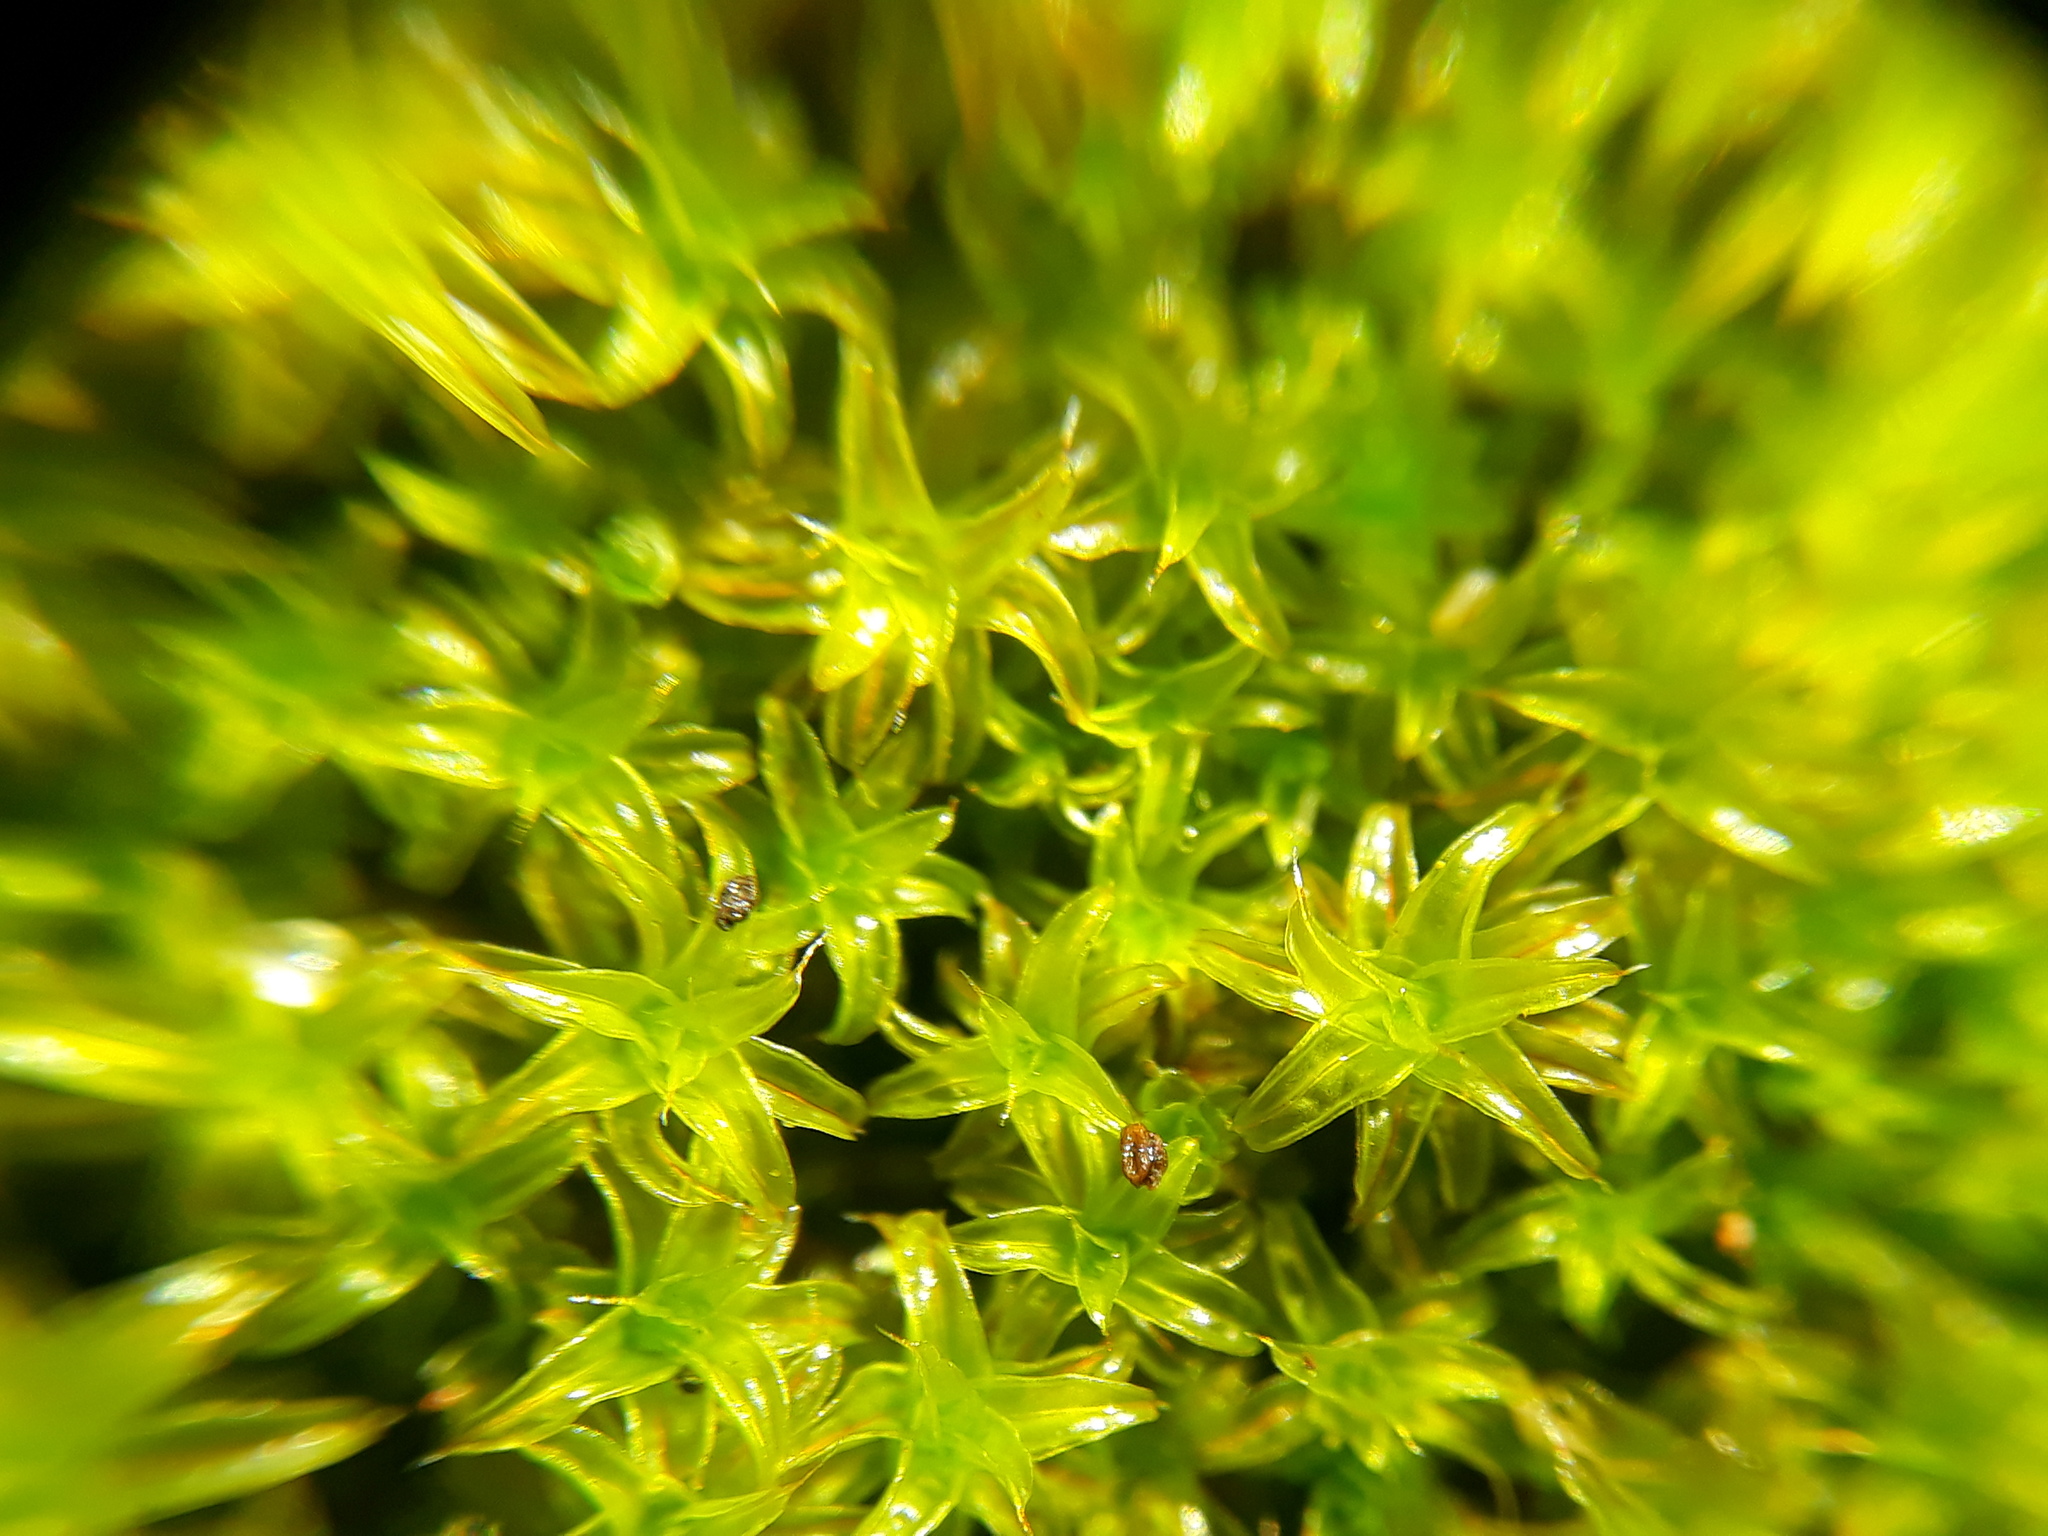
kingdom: Plantae
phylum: Bryophyta
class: Bryopsida
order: Pottiales
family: Pottiaceae
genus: Syntrichia
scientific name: Syntrichia ruralis
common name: Sidewalk screw moss
